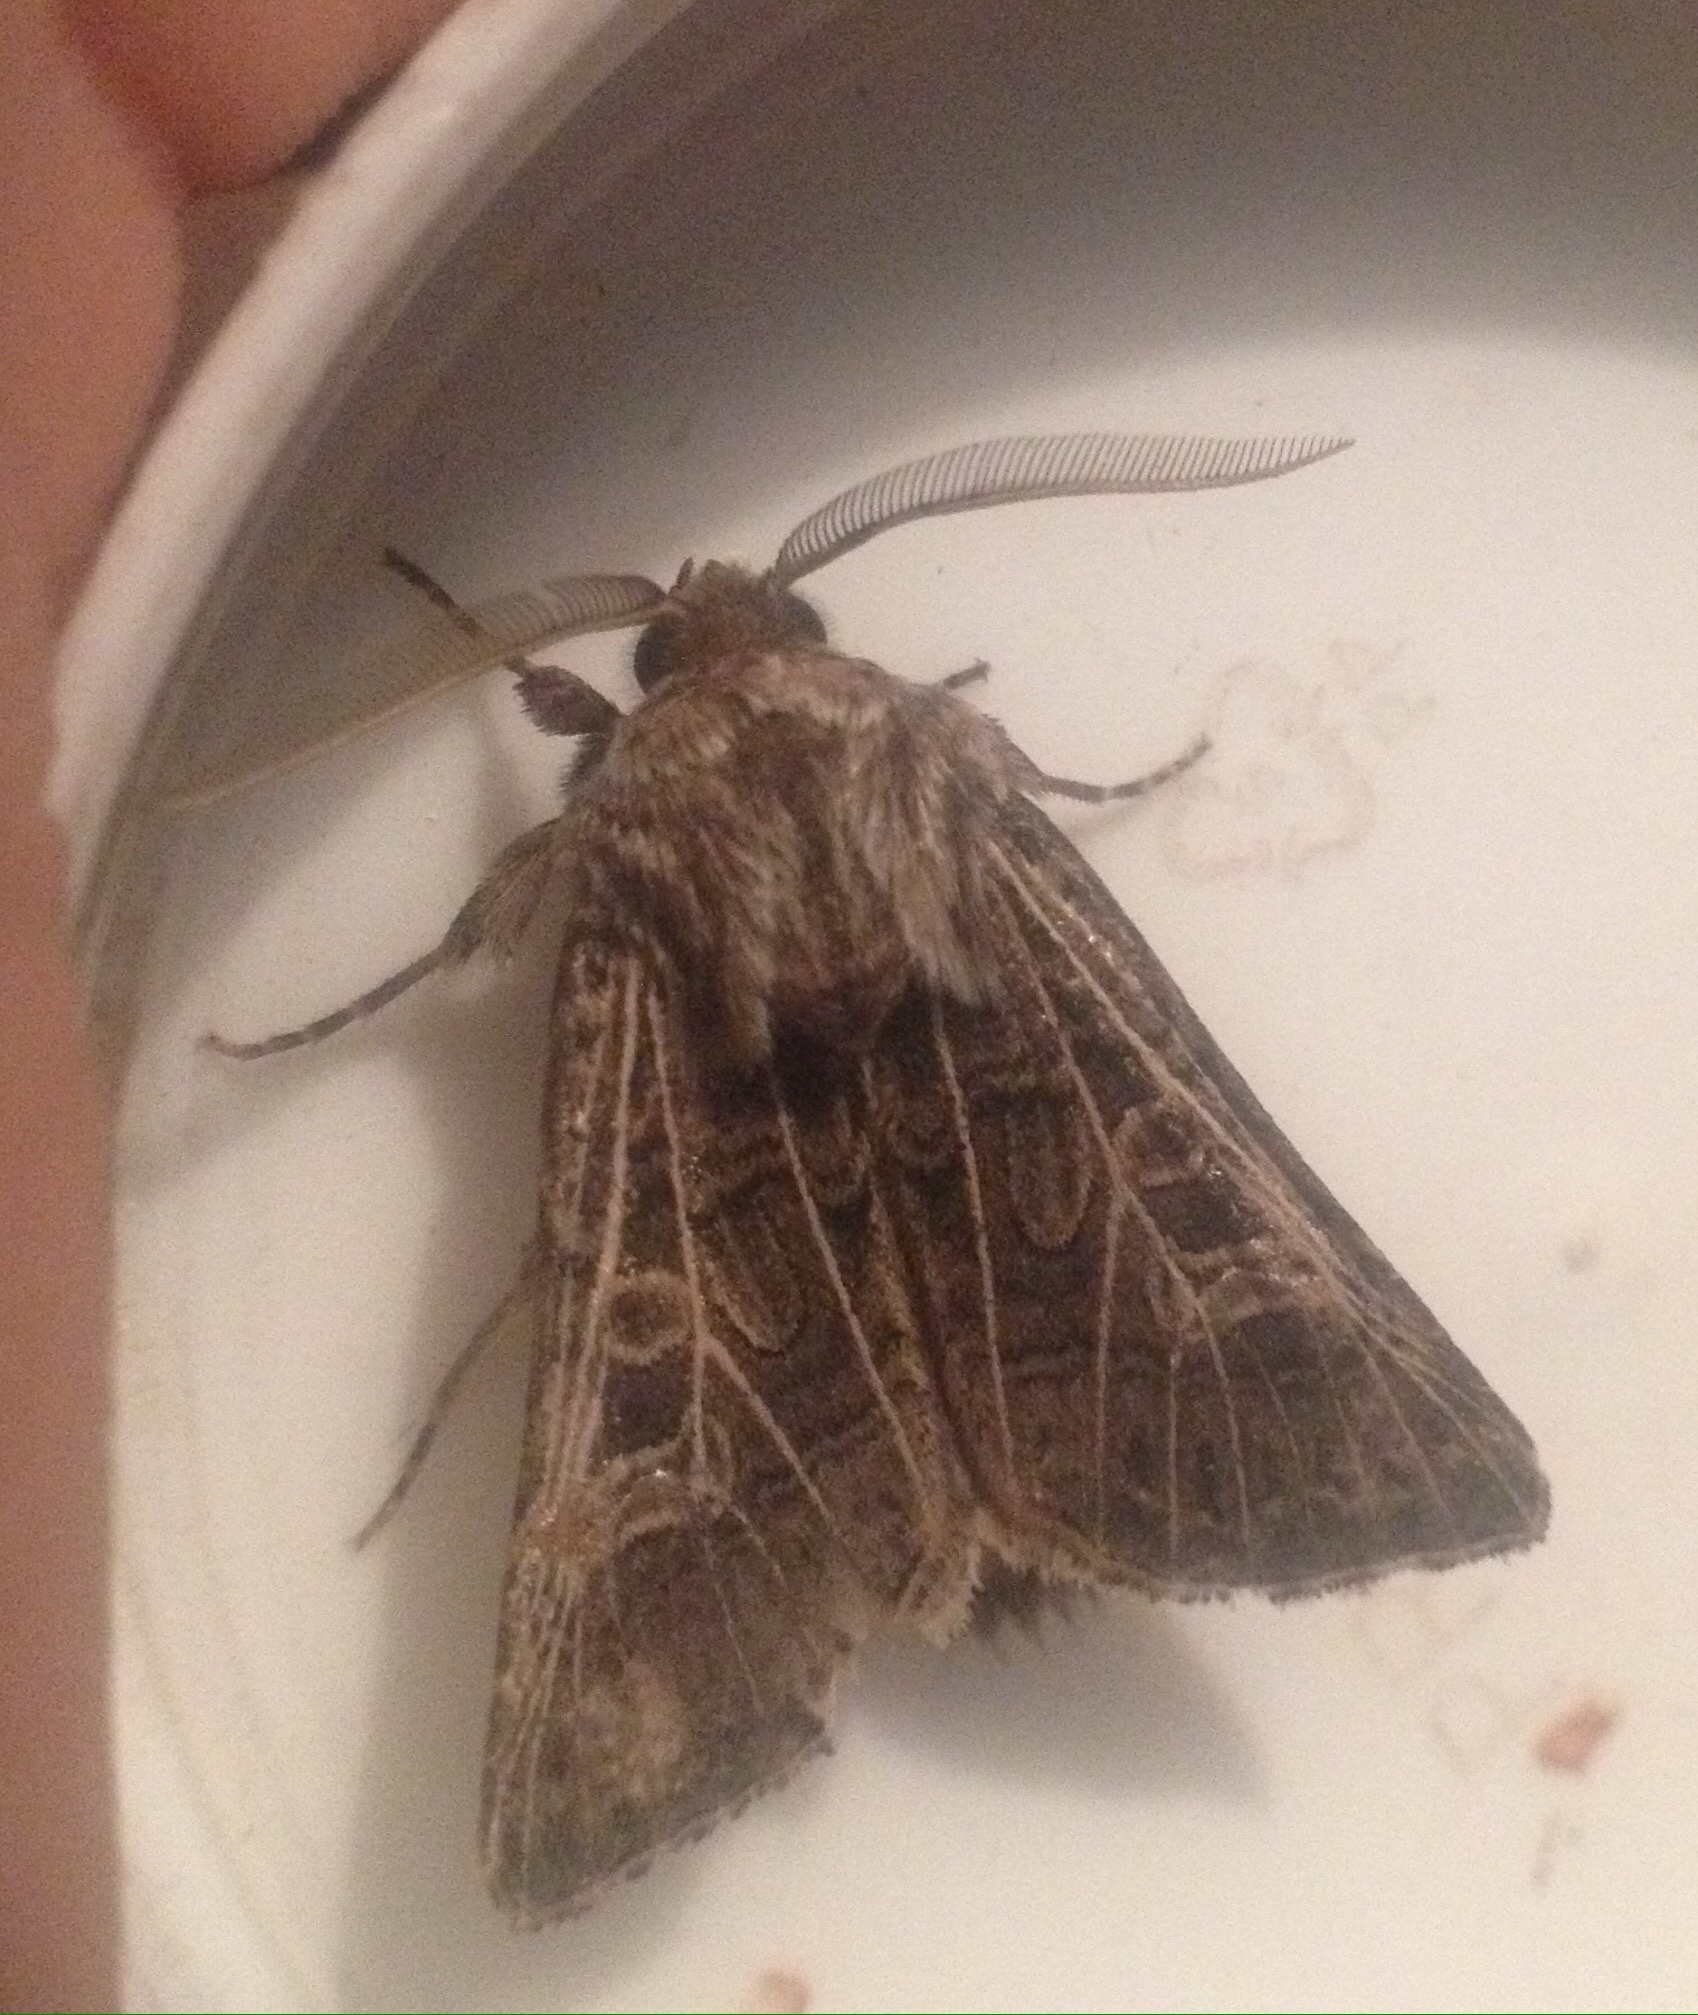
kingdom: Animalia
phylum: Arthropoda
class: Insecta
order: Lepidoptera
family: Noctuidae
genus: Tholera
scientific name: Tholera decimalis
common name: Feathered gothic
